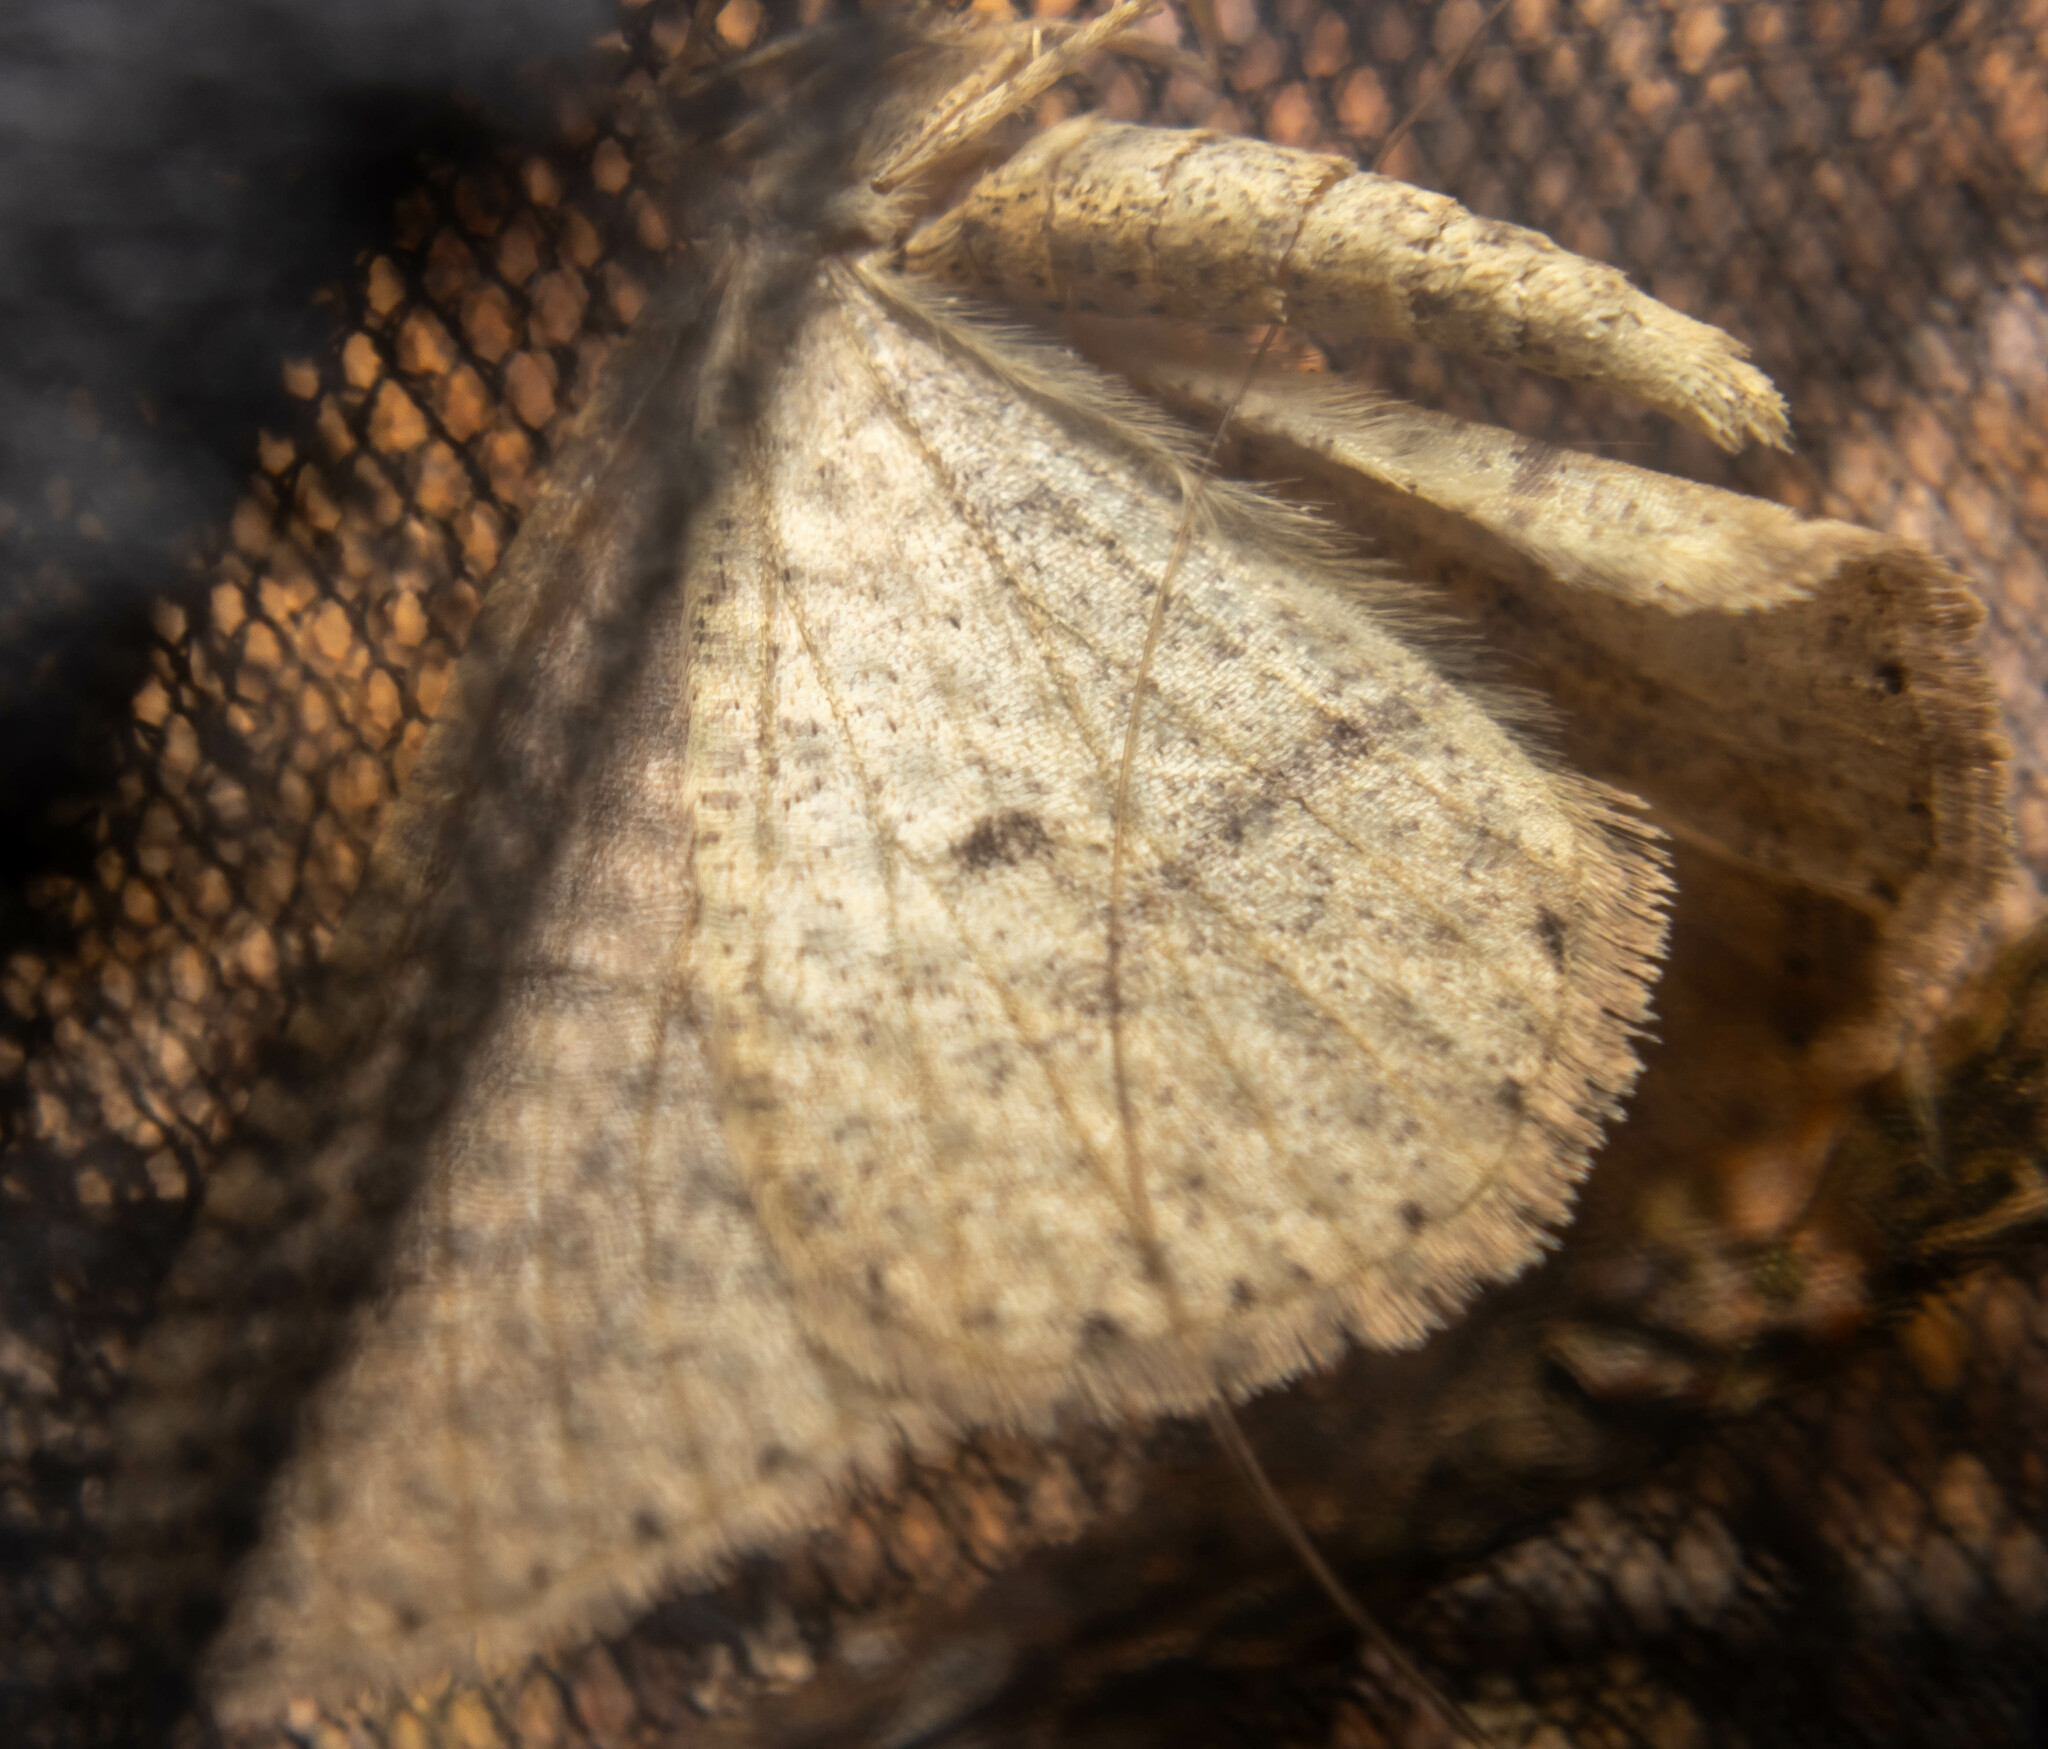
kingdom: Animalia
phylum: Arthropoda
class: Insecta
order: Lepidoptera
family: Geometridae
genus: Agriopis
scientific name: Agriopis marginaria
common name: Dotted border
